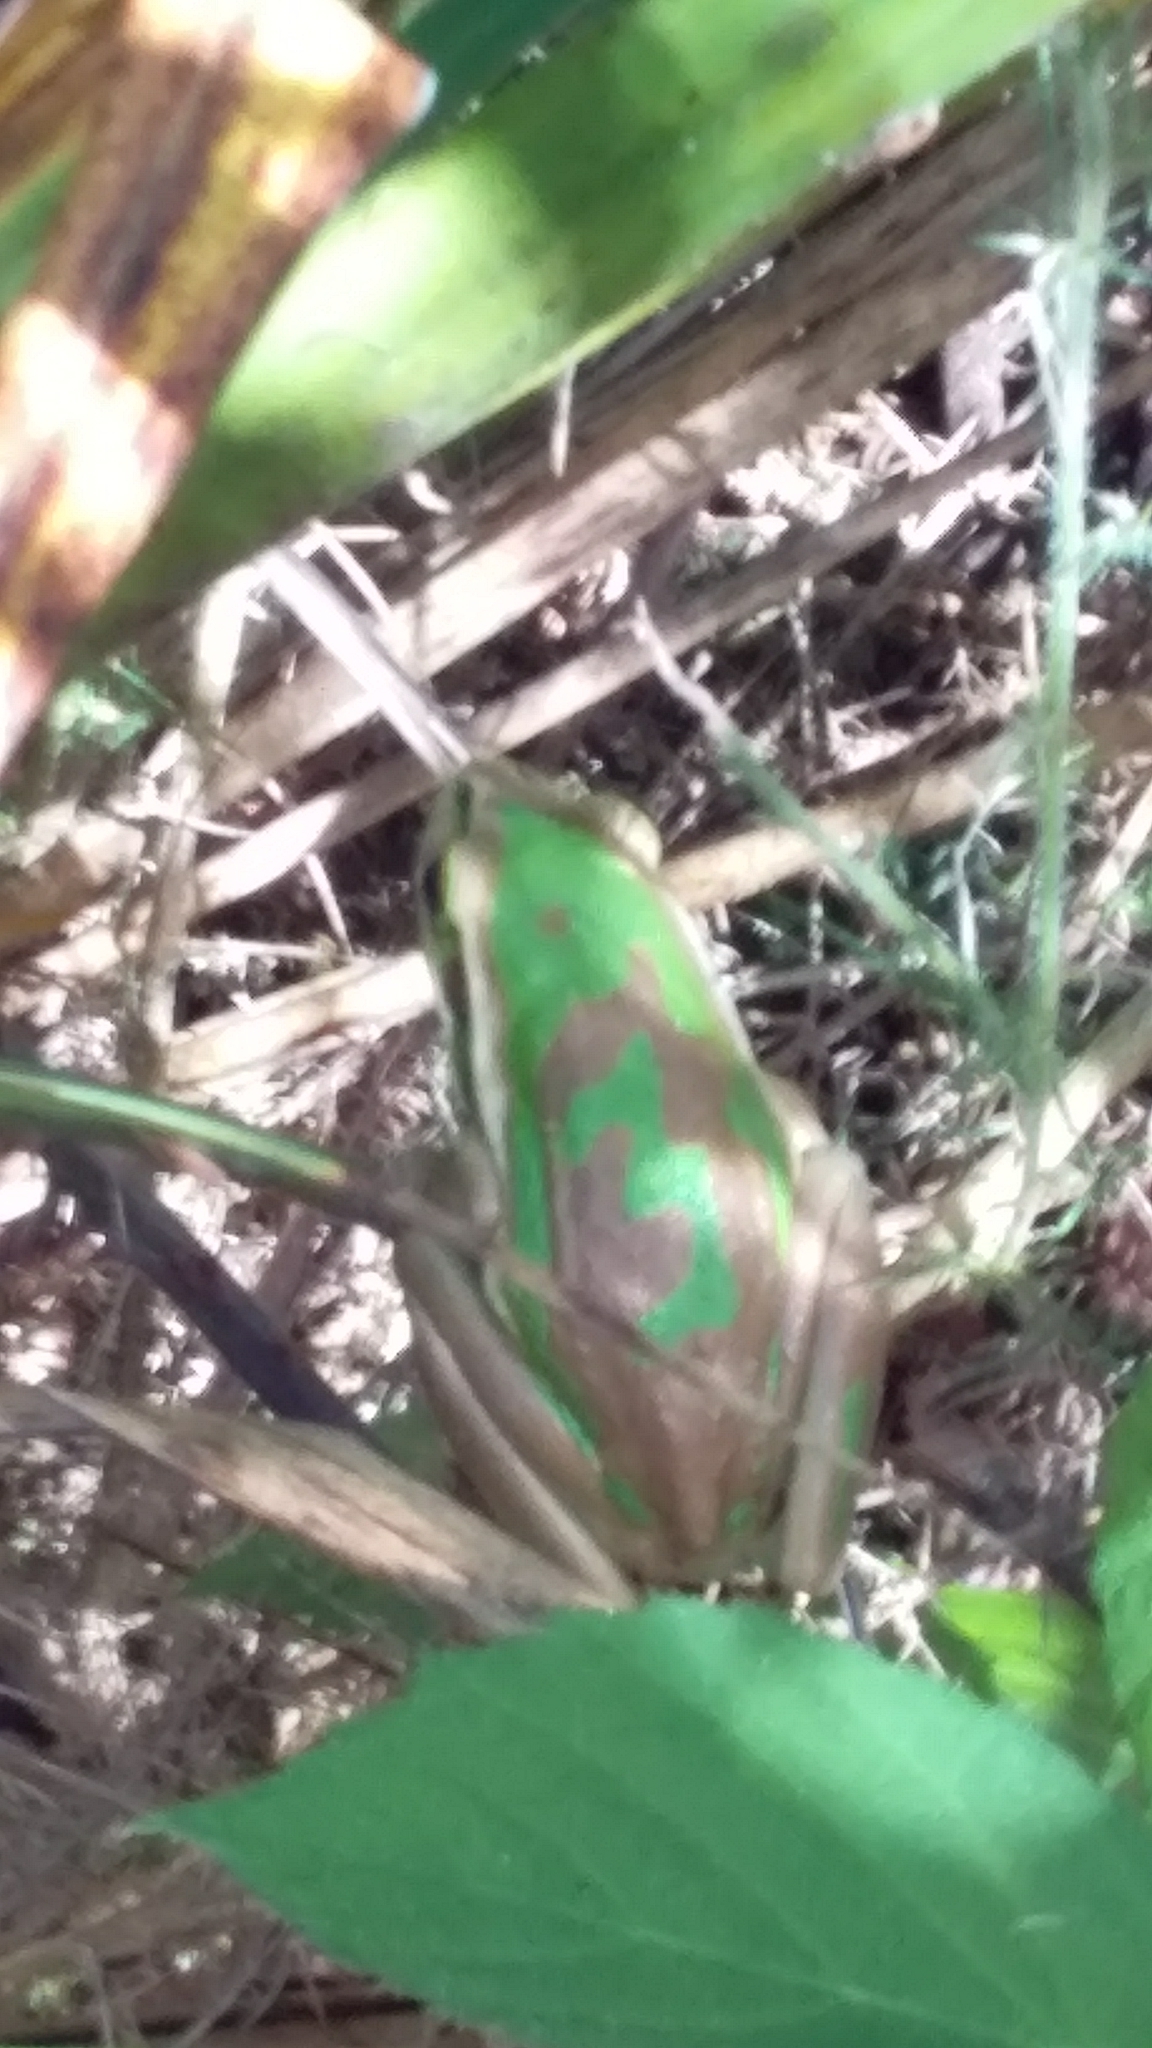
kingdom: Animalia
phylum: Chordata
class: Amphibia
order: Anura
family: Pelodryadidae
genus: Ranoidea
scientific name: Ranoidea aurea
